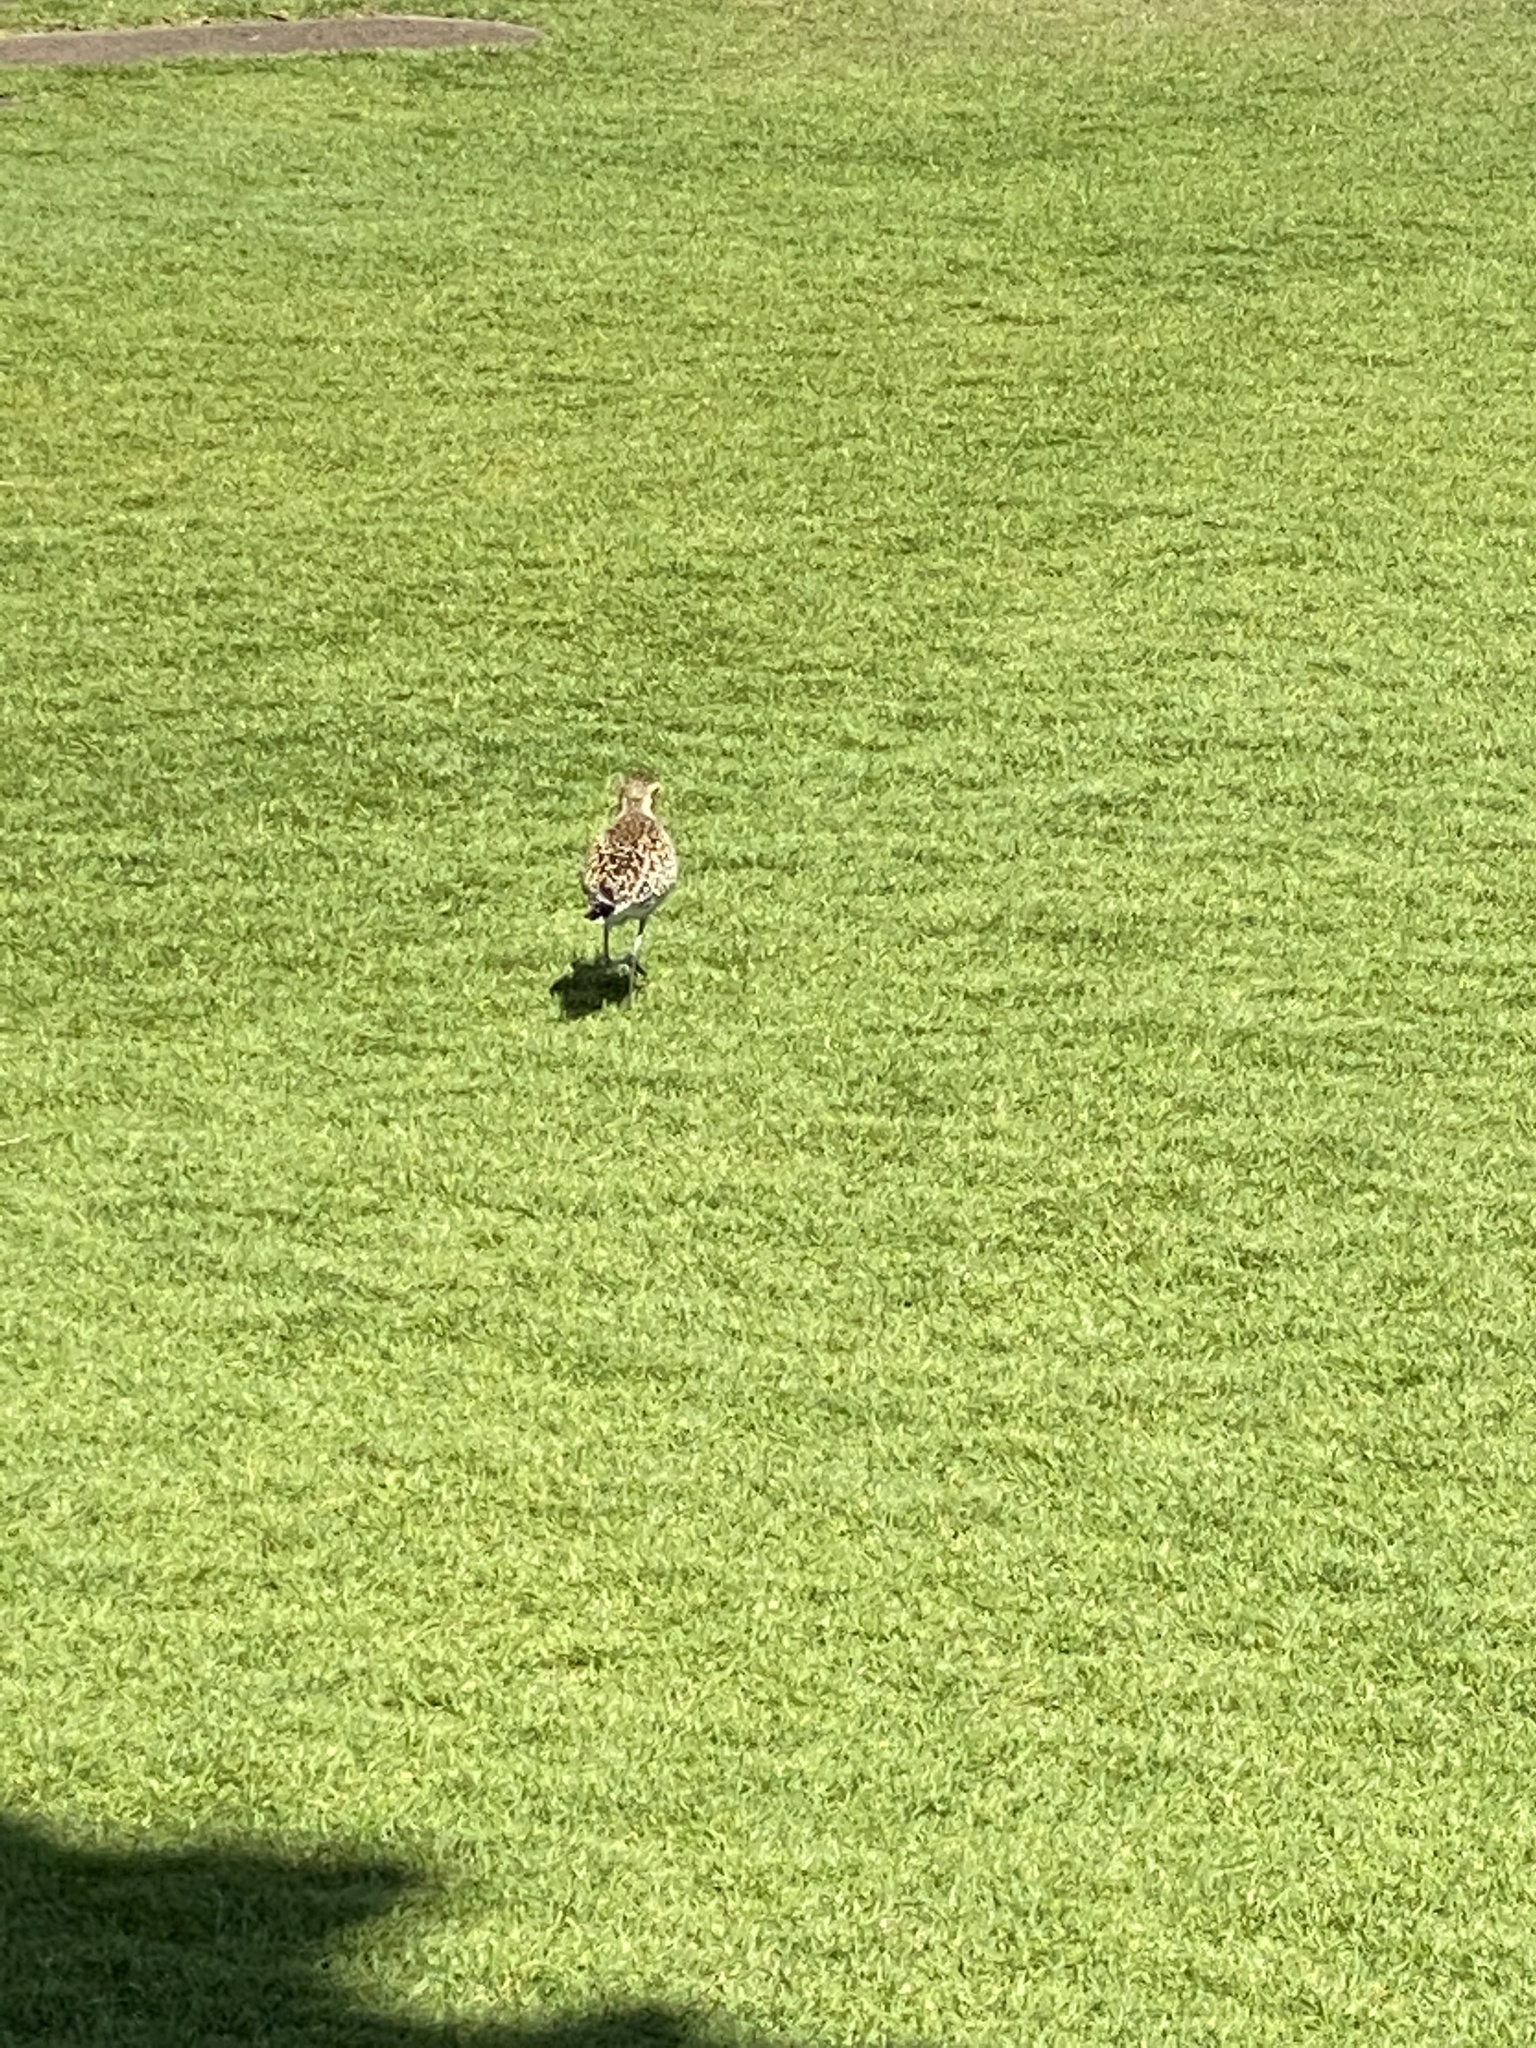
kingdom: Animalia
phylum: Chordata
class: Aves
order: Charadriiformes
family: Charadriidae
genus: Pluvialis
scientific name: Pluvialis fulva
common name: Pacific golden plover
